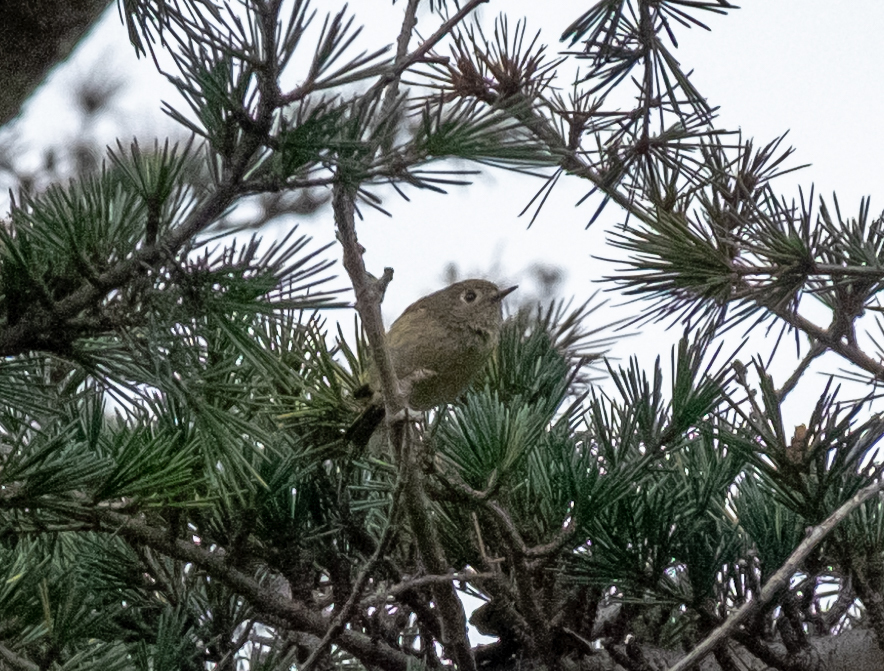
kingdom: Animalia
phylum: Chordata
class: Aves
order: Passeriformes
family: Regulidae
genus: Regulus
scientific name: Regulus calendula
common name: Ruby-crowned kinglet
